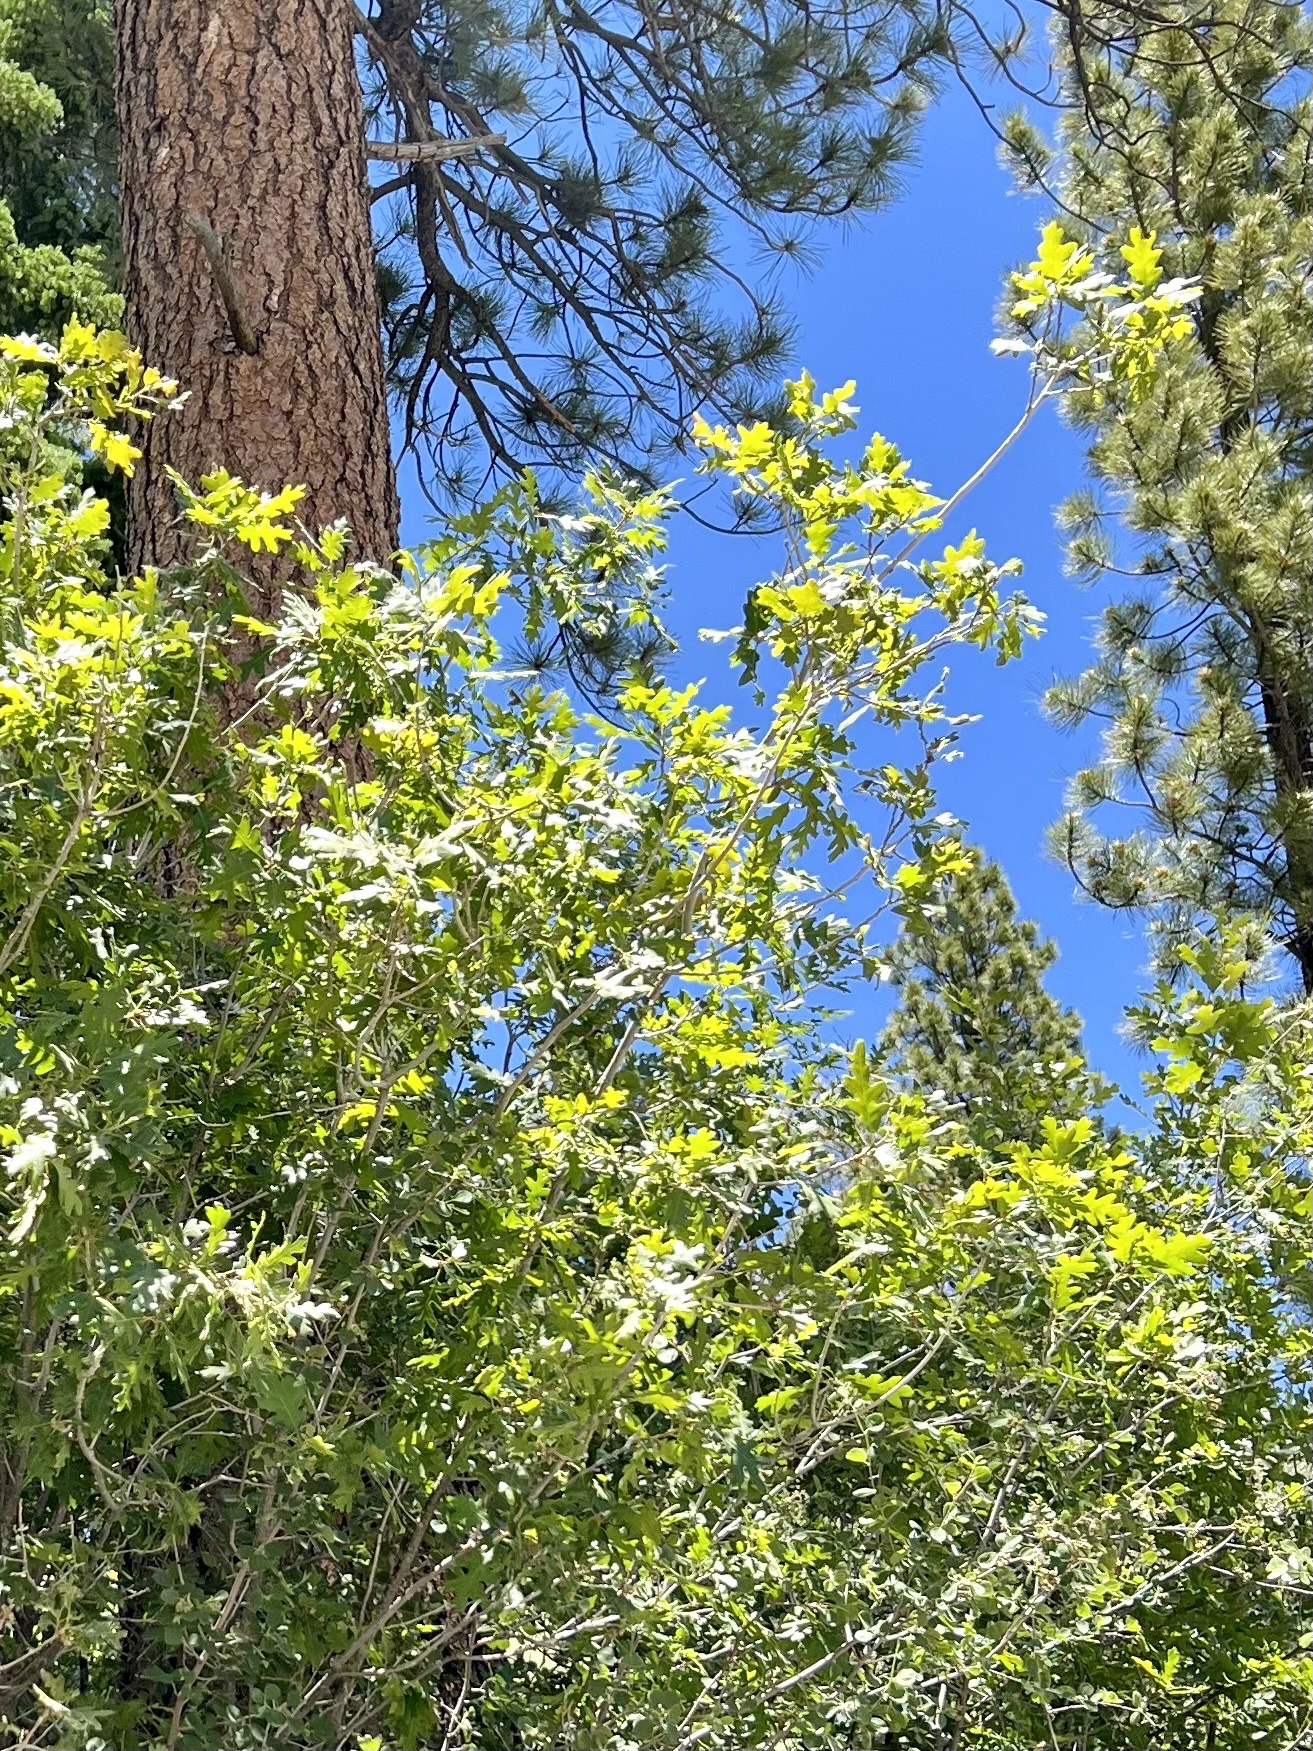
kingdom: Plantae
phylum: Tracheophyta
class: Magnoliopsida
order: Fagales
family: Fagaceae
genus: Quercus
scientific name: Quercus gambelii
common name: Gambel oak
